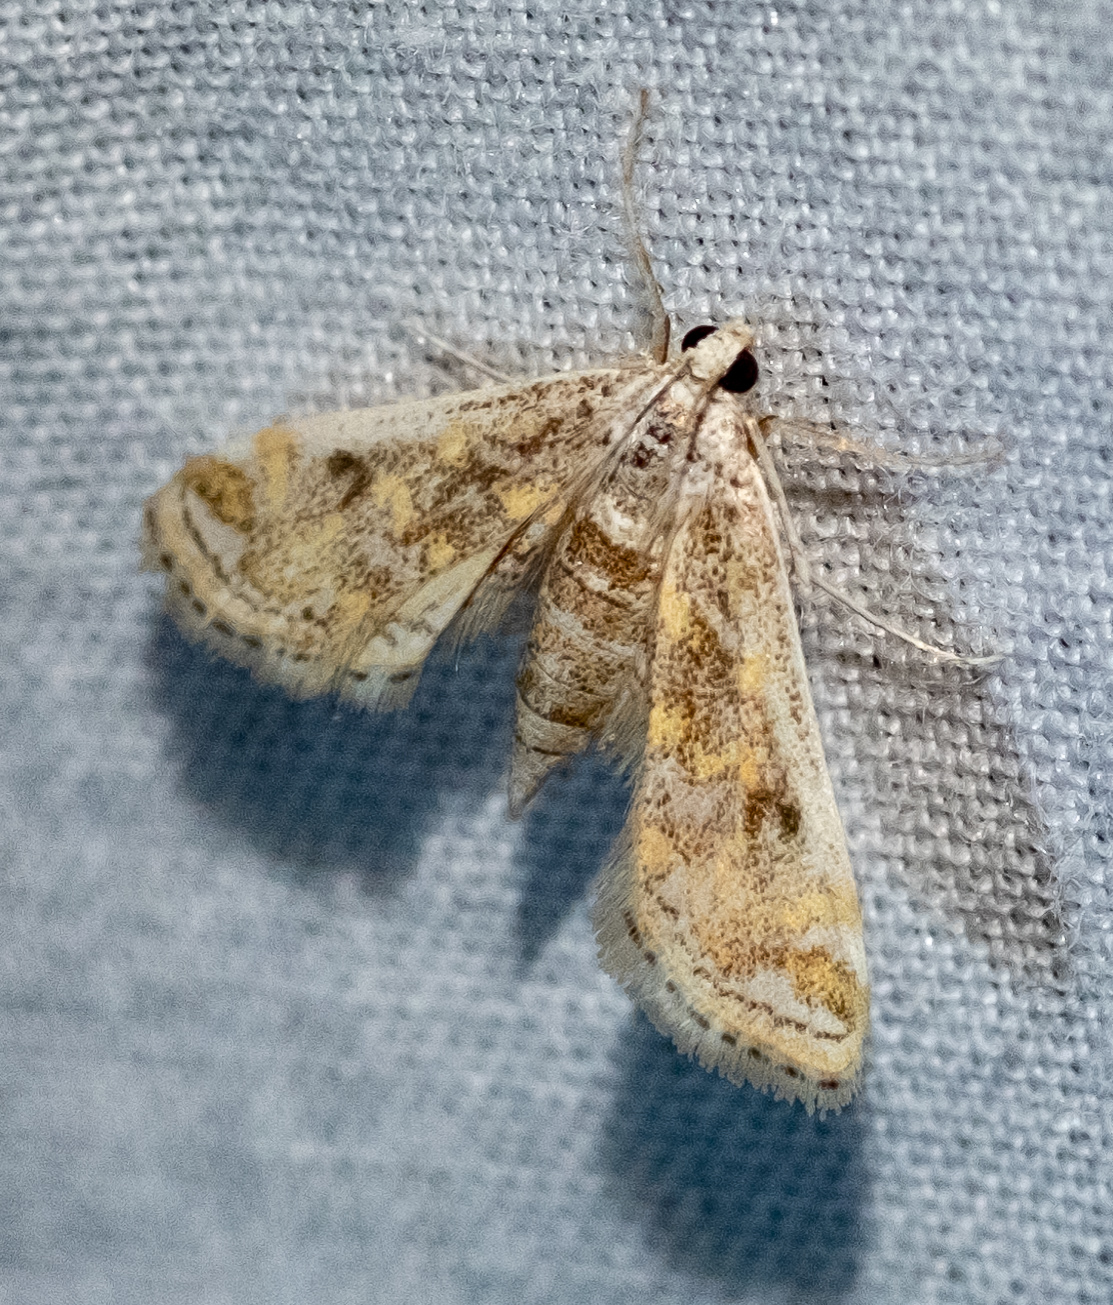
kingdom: Animalia
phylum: Arthropoda
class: Insecta
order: Lepidoptera
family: Crambidae
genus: Parapoynx
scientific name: Parapoynx diminutalis
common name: Hydrilla leafcutter
